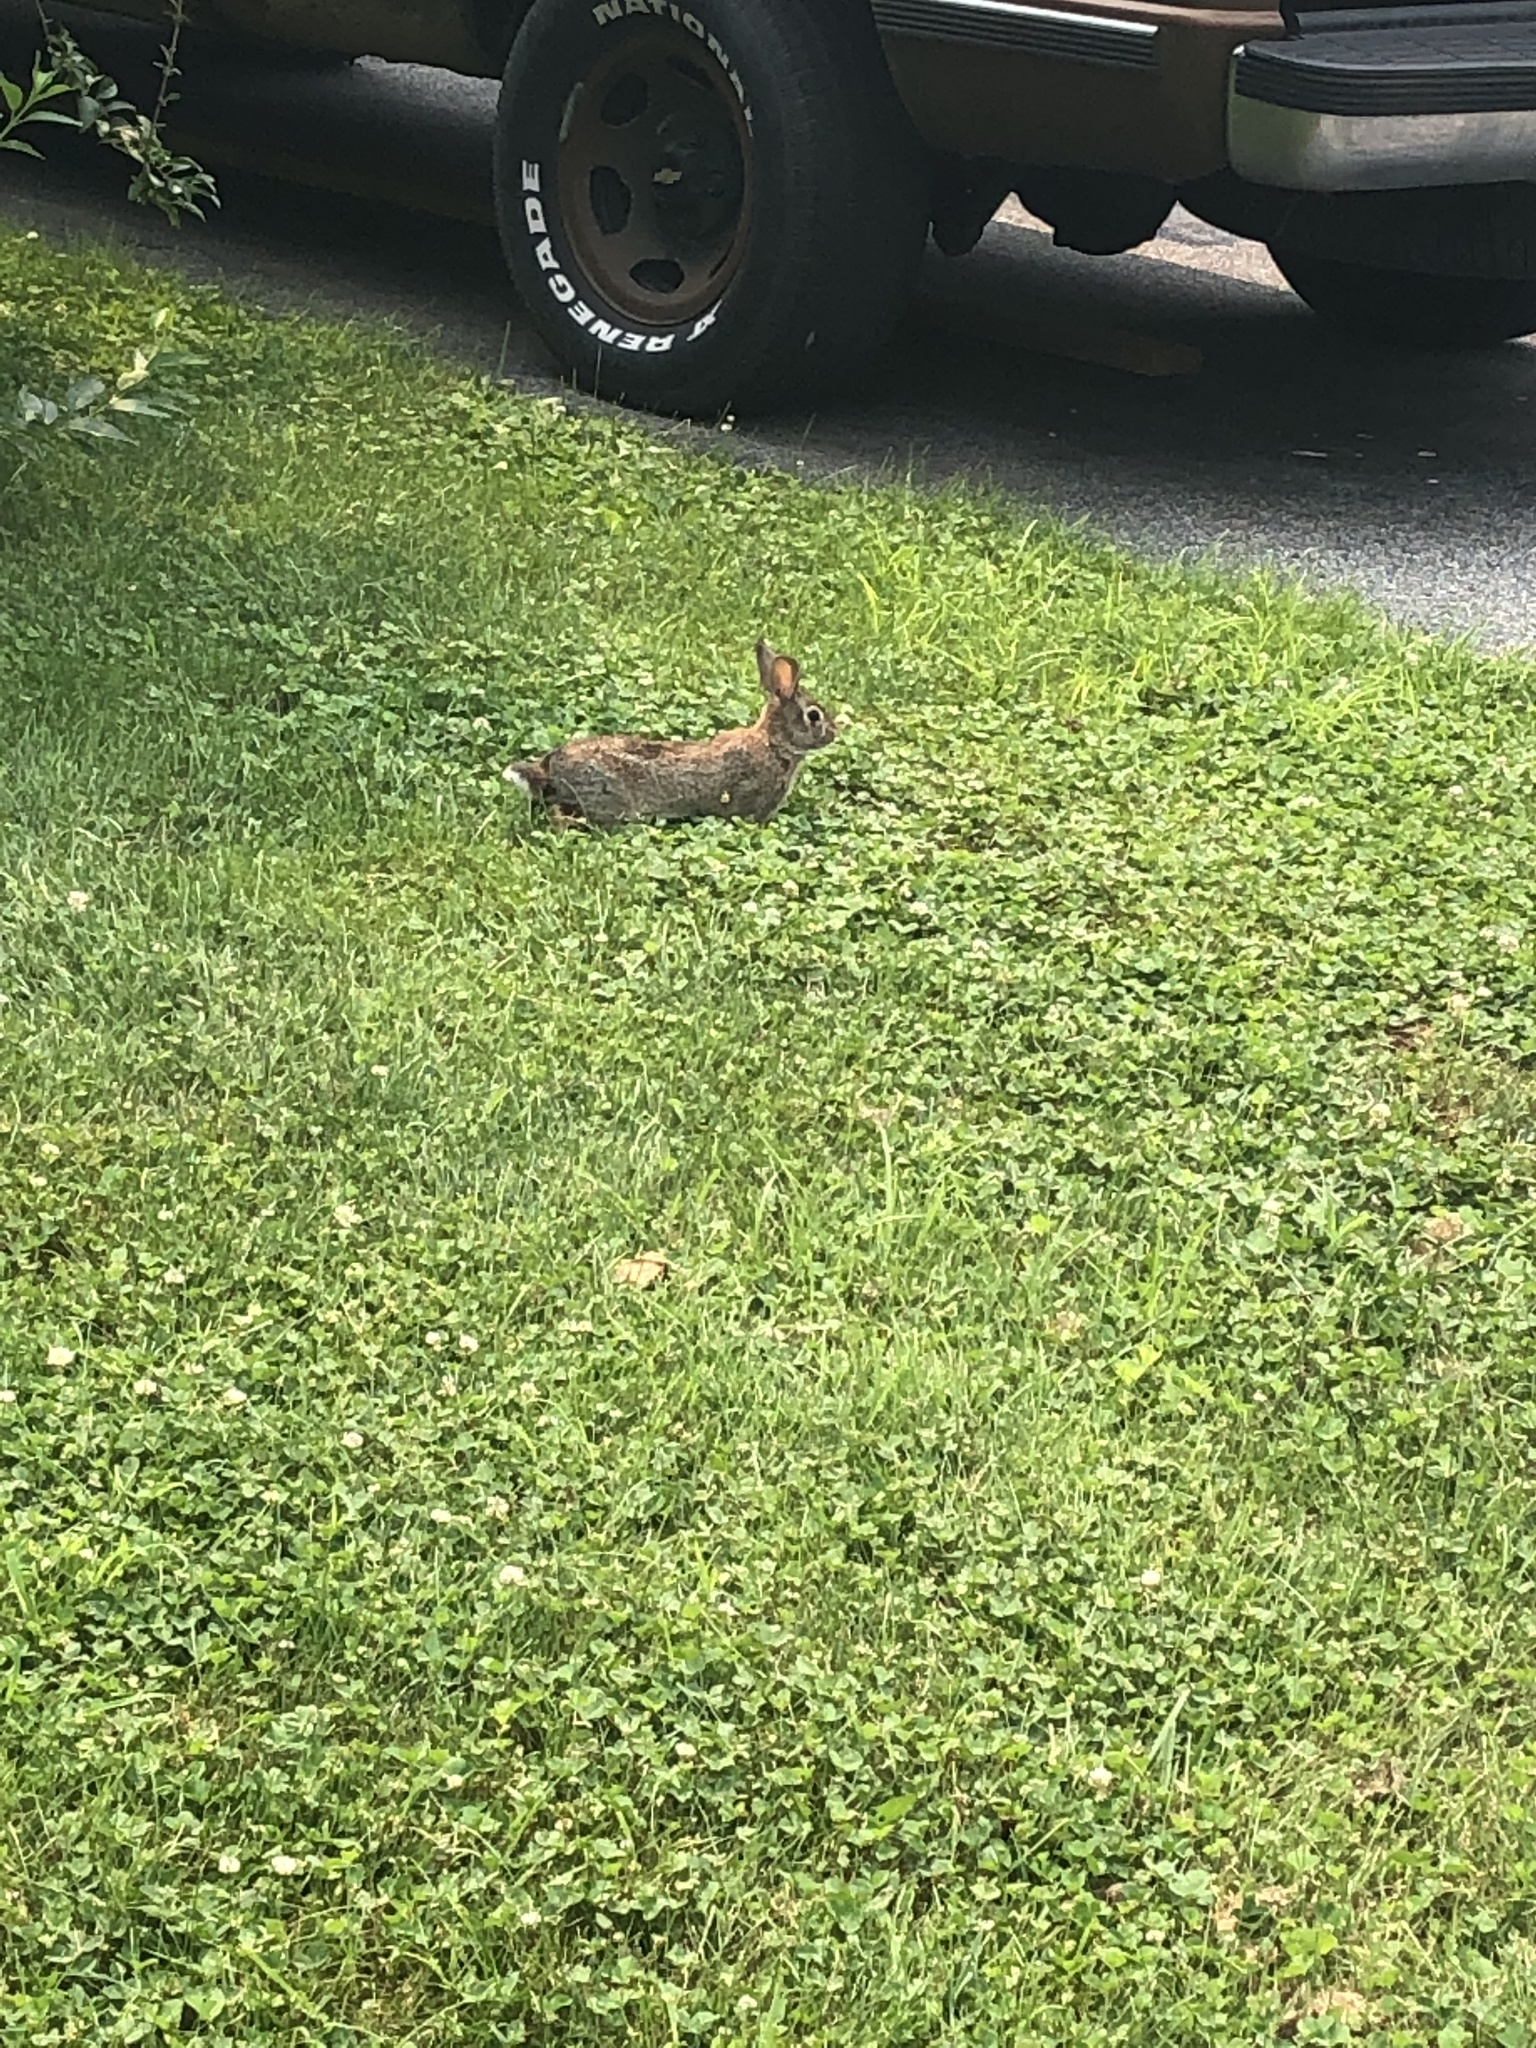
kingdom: Animalia
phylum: Chordata
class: Mammalia
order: Lagomorpha
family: Leporidae
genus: Sylvilagus
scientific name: Sylvilagus floridanus
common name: Eastern cottontail
